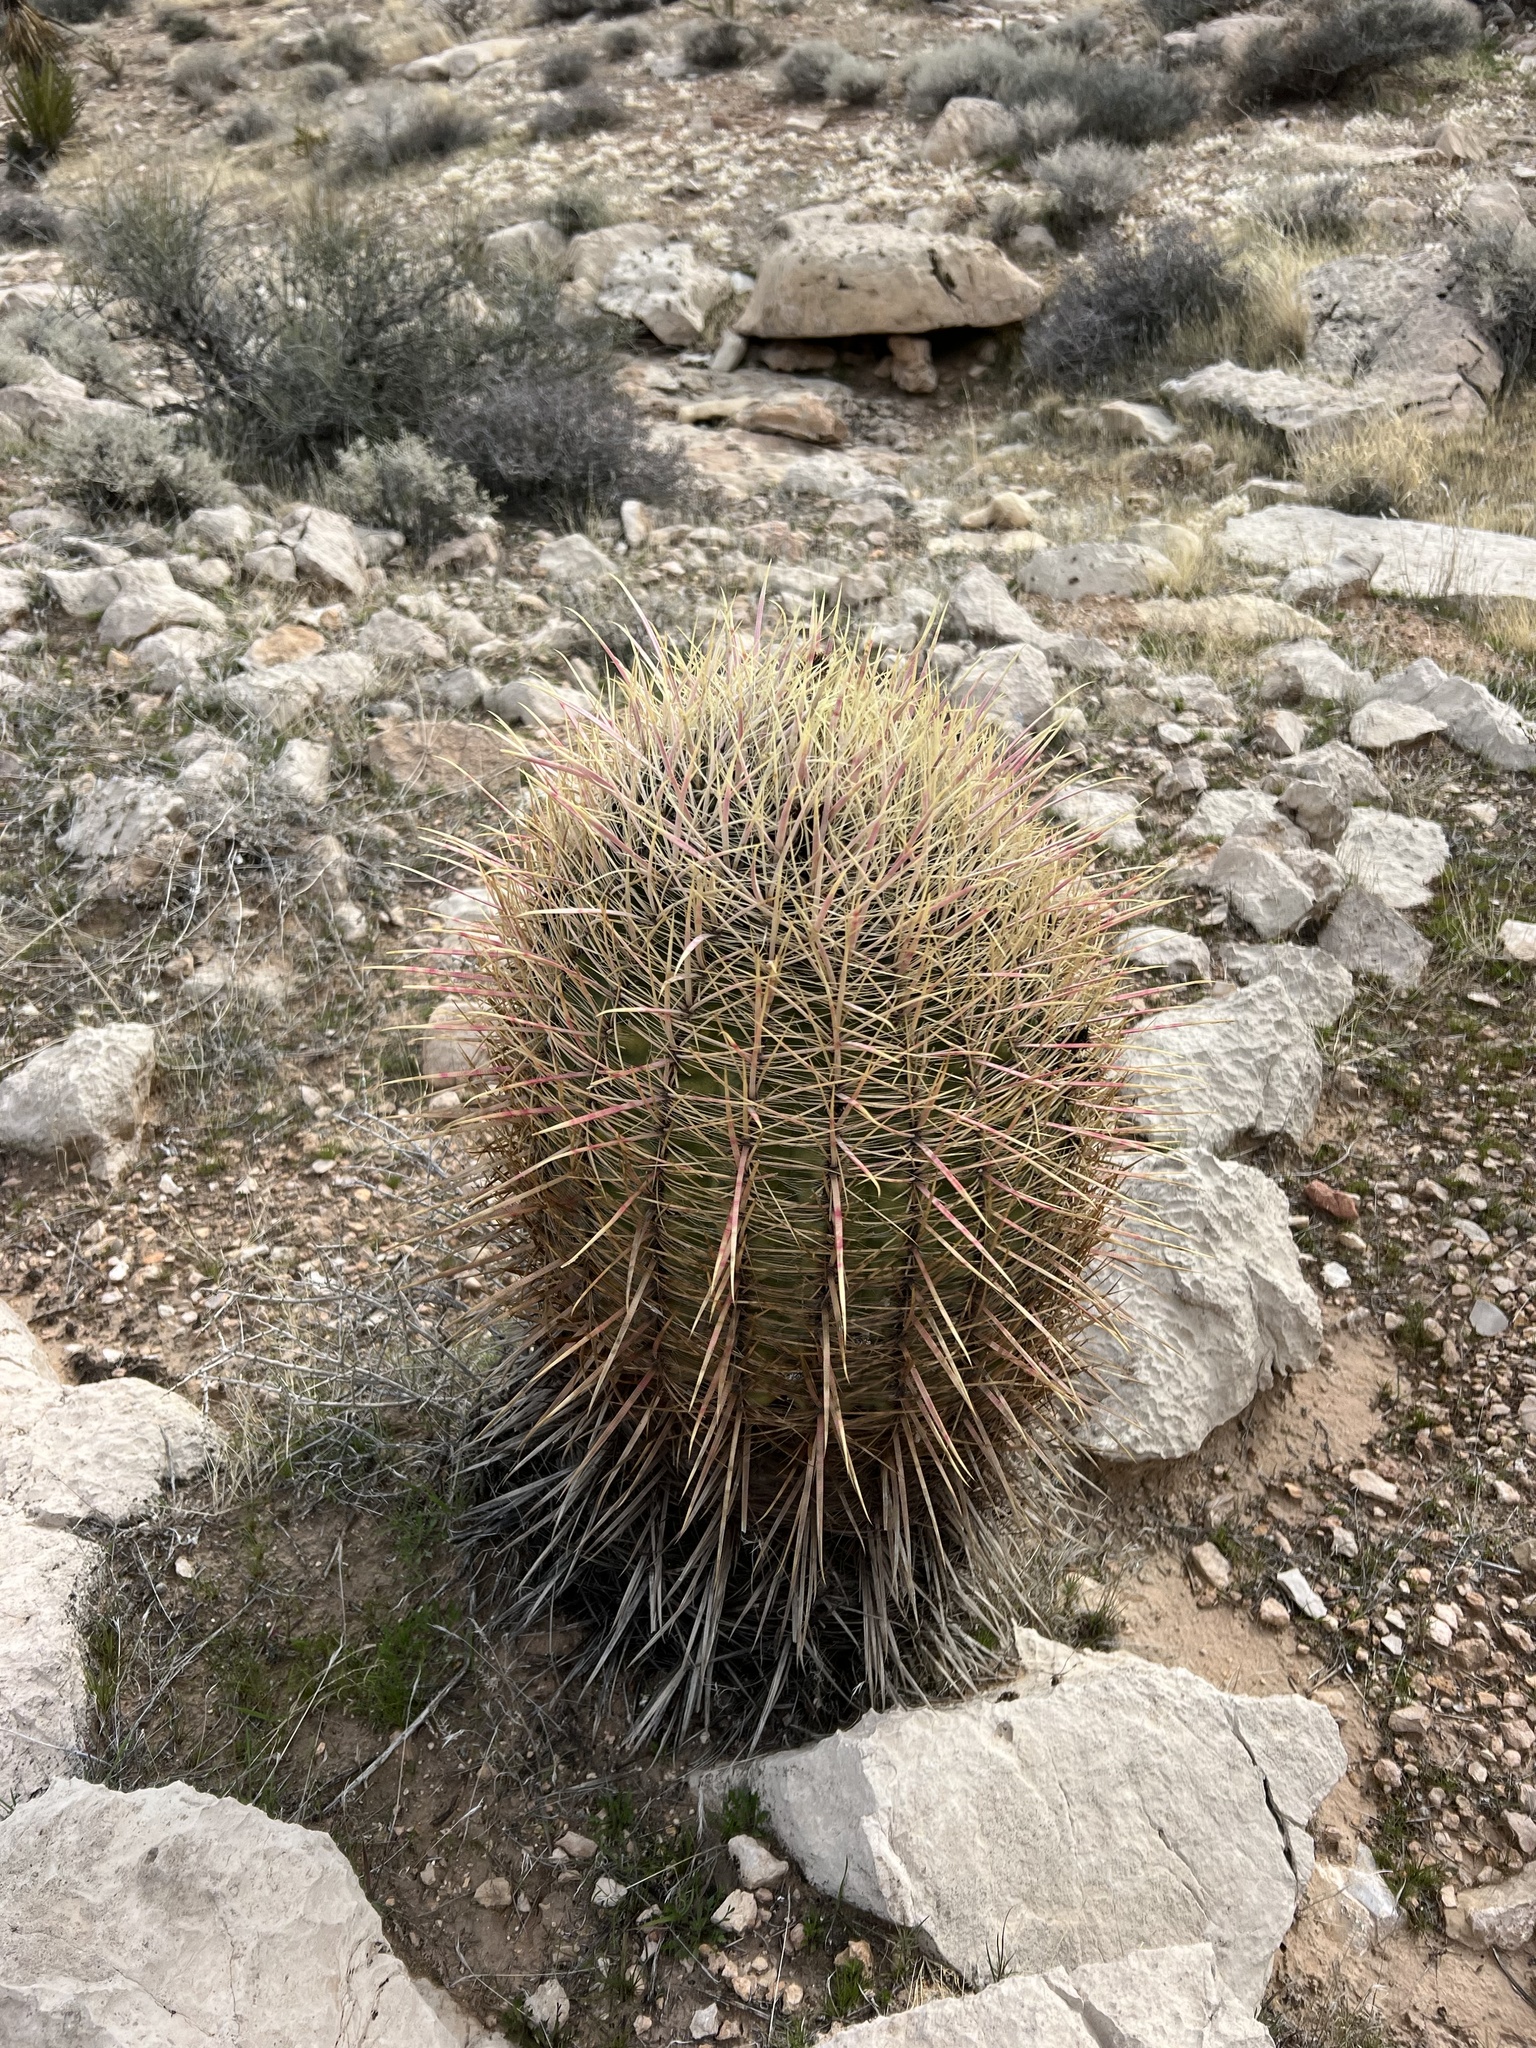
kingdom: Plantae
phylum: Tracheophyta
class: Magnoliopsida
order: Caryophyllales
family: Cactaceae
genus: Ferocactus
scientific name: Ferocactus cylindraceus
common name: California barrel cactus
